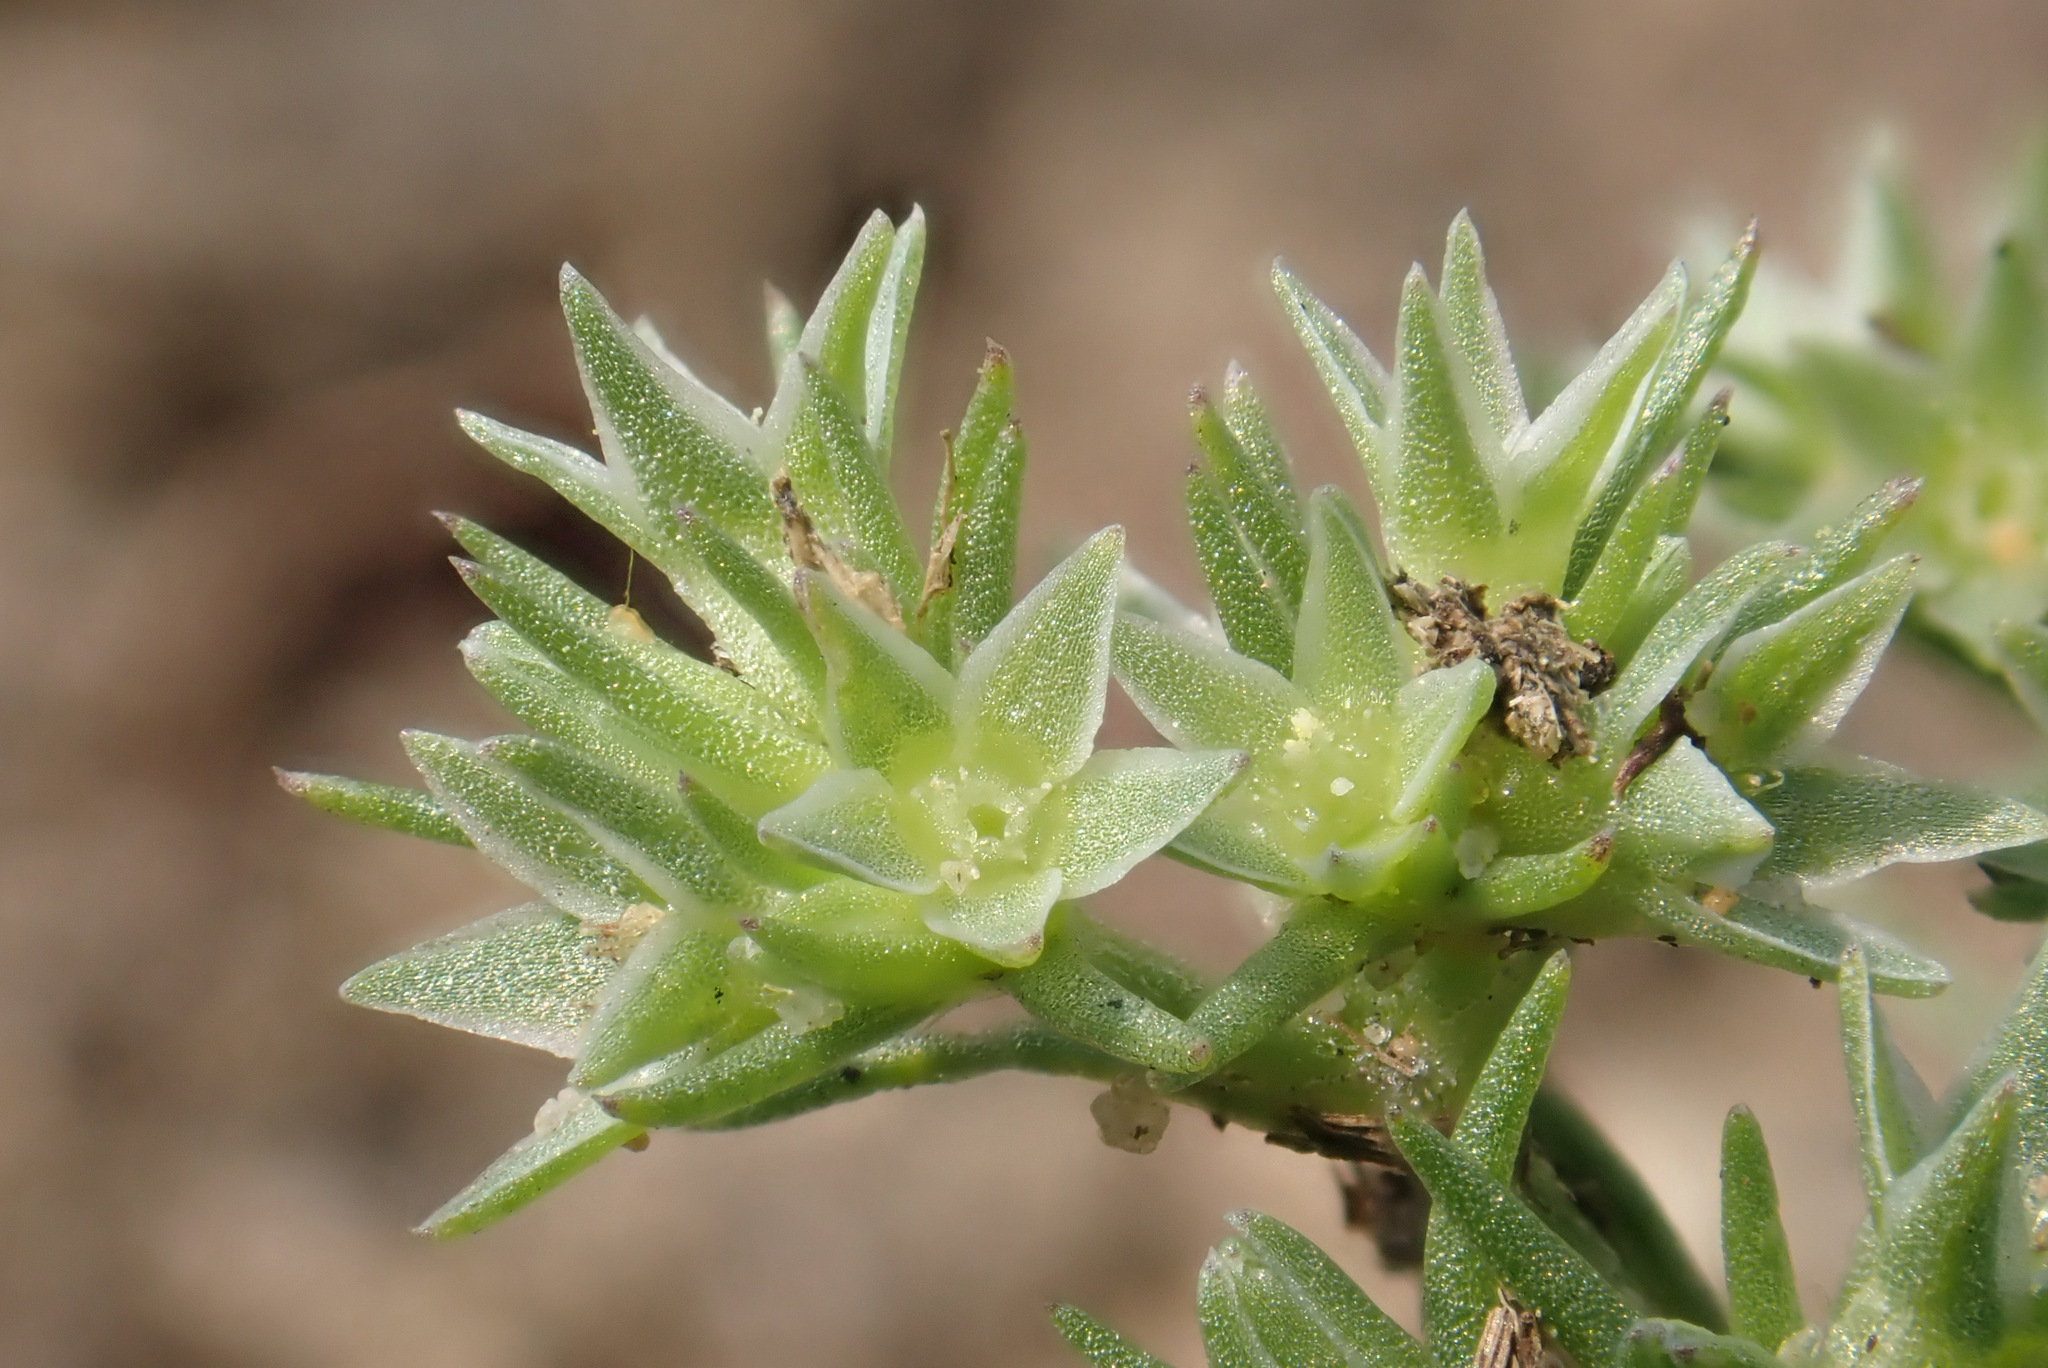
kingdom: Plantae
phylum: Tracheophyta
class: Magnoliopsida
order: Caryophyllales
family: Caryophyllaceae
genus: Scleranthus
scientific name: Scleranthus annuus
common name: Annual knawel
